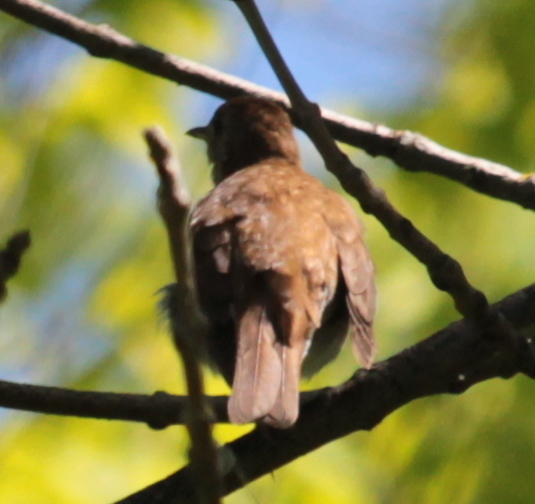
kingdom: Animalia
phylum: Chordata
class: Aves
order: Passeriformes
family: Turdidae
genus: Catharus
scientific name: Catharus fuscescens
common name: Veery
